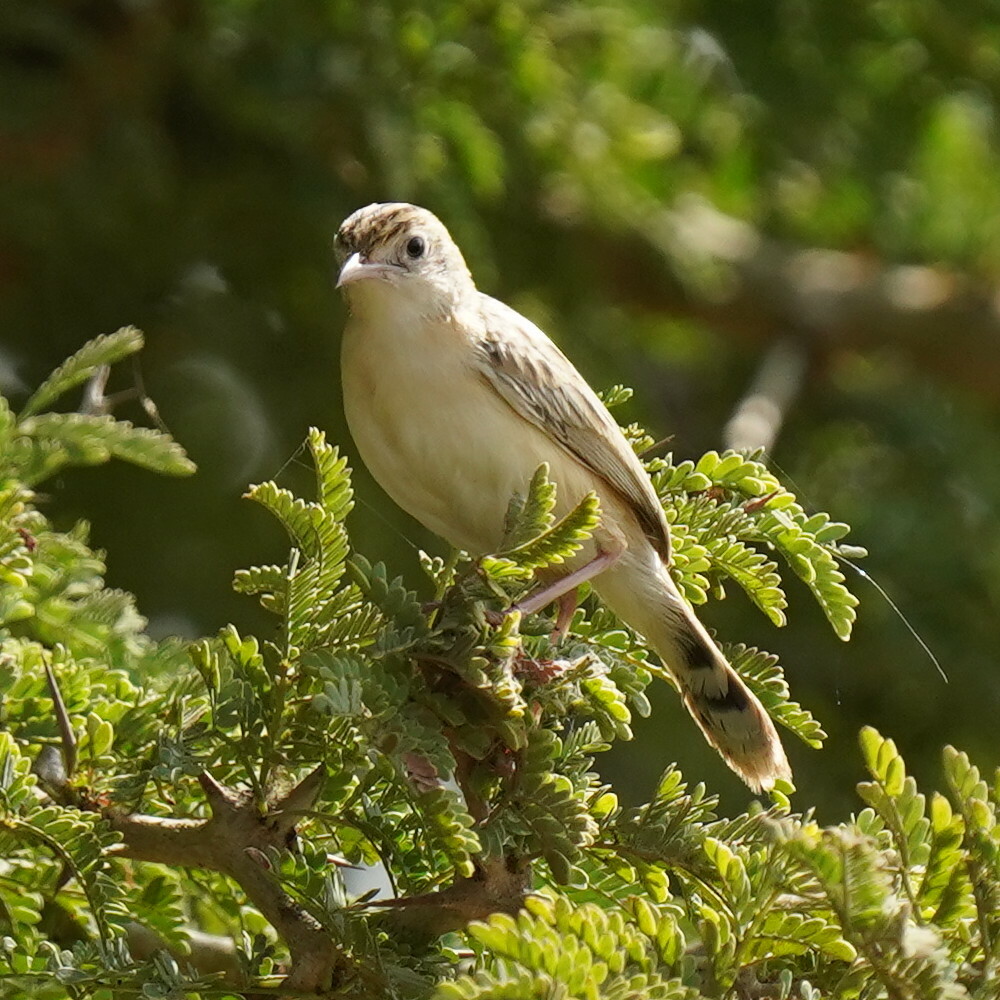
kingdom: Animalia
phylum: Chordata
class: Aves
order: Passeriformes
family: Cisticolidae
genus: Cisticola
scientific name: Cisticola juncidis
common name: Zitting cisticola
